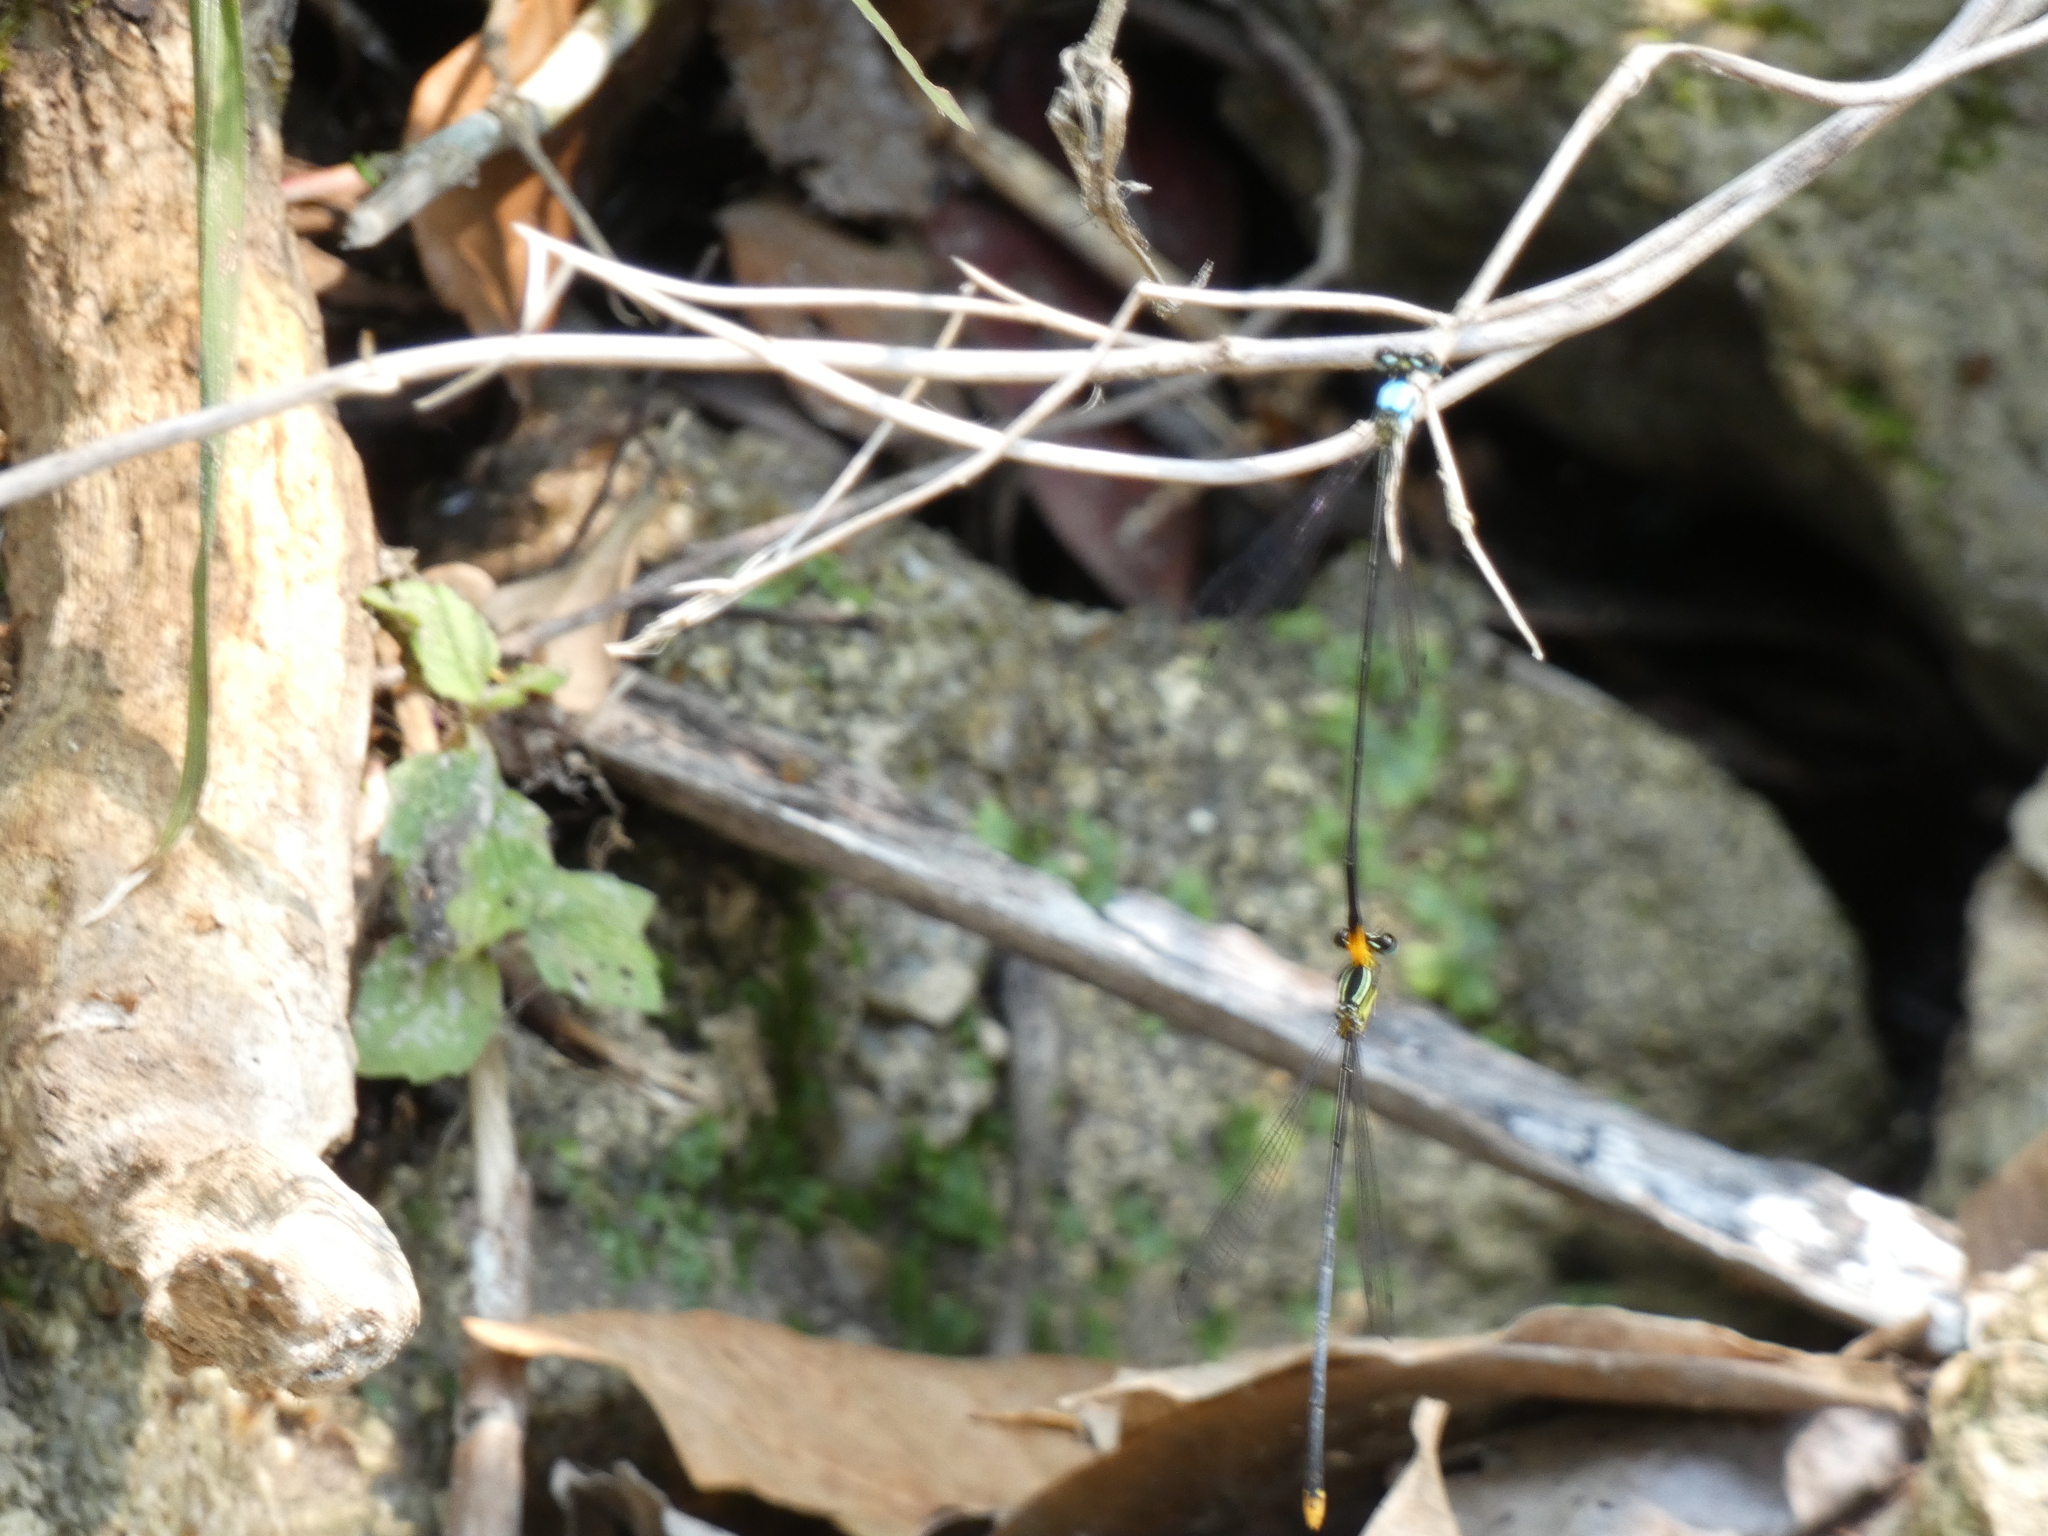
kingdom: Animalia
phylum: Arthropoda
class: Insecta
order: Odonata
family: Platycnemididae
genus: Coeliccia
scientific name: Coeliccia poungyi
